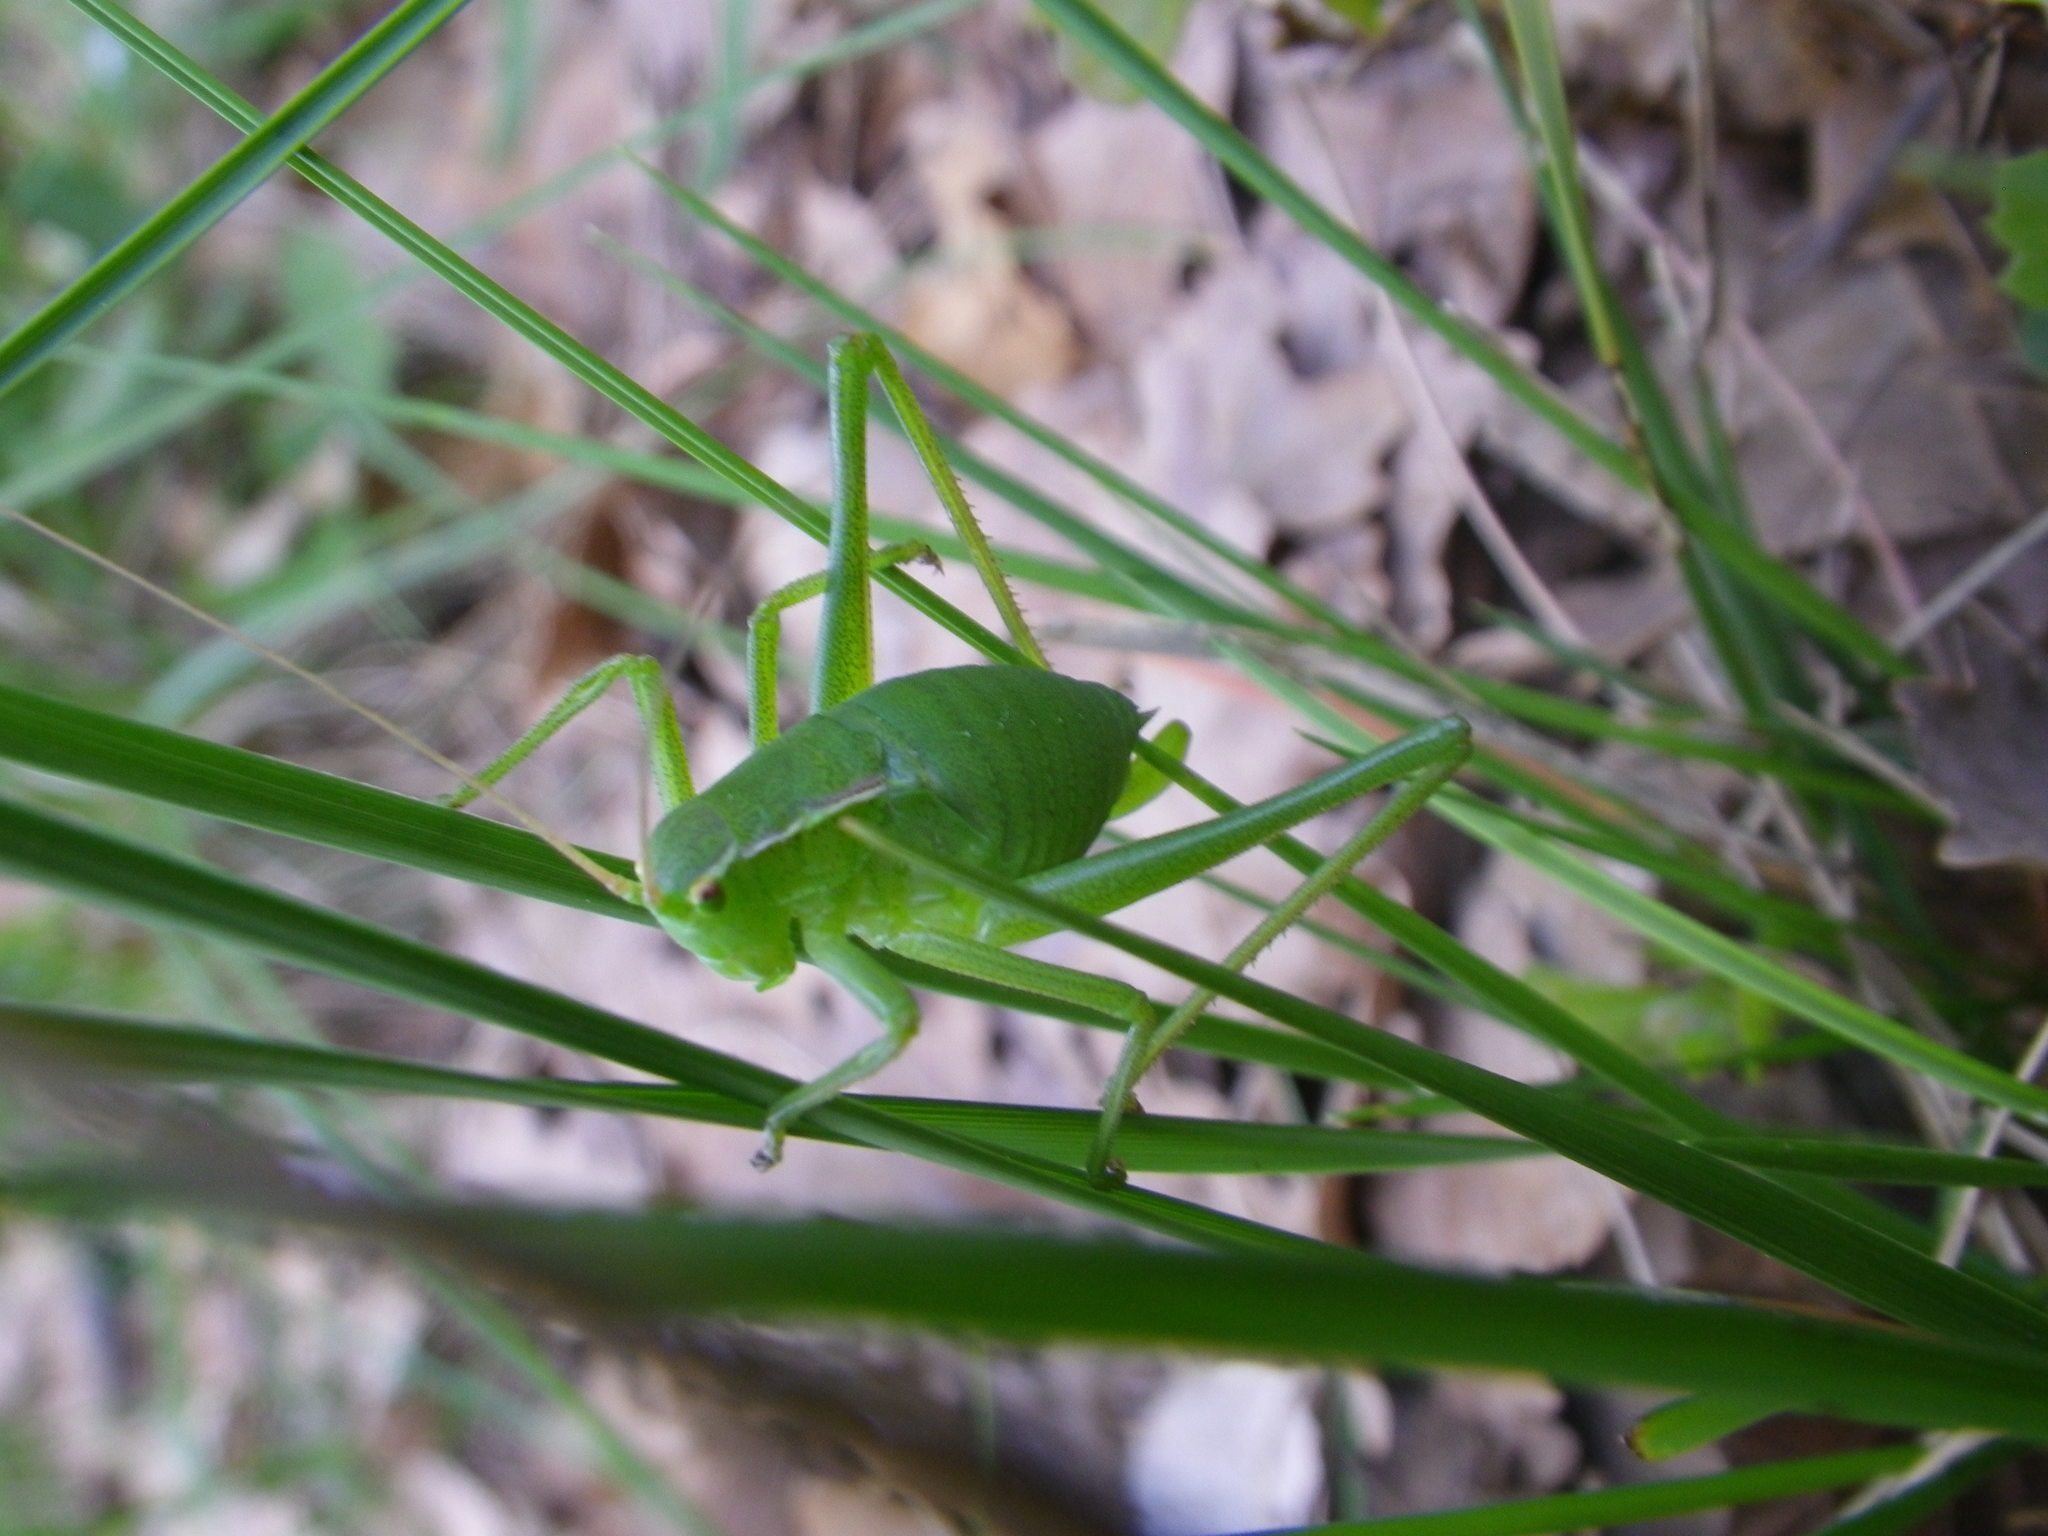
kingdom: Animalia
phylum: Arthropoda
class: Insecta
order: Orthoptera
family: Tettigoniidae
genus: Isophya
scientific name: Isophya pyrenaea
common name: Pyrenean plump bush-cricket
